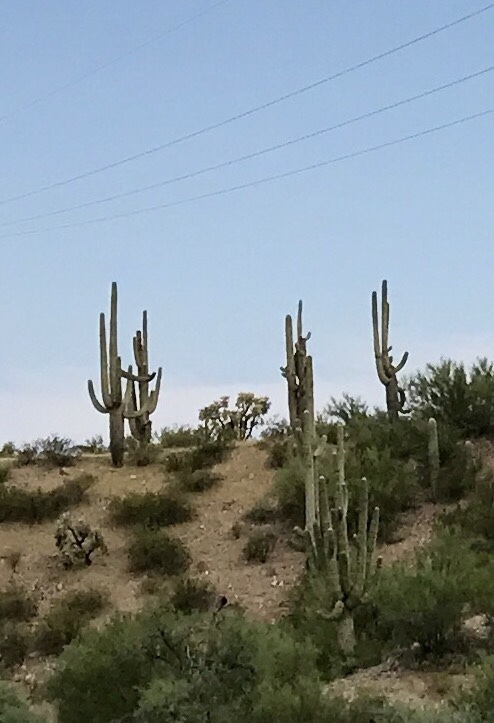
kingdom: Plantae
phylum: Tracheophyta
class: Magnoliopsida
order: Caryophyllales
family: Cactaceae
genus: Carnegiea
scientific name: Carnegiea gigantea
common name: Saguaro
